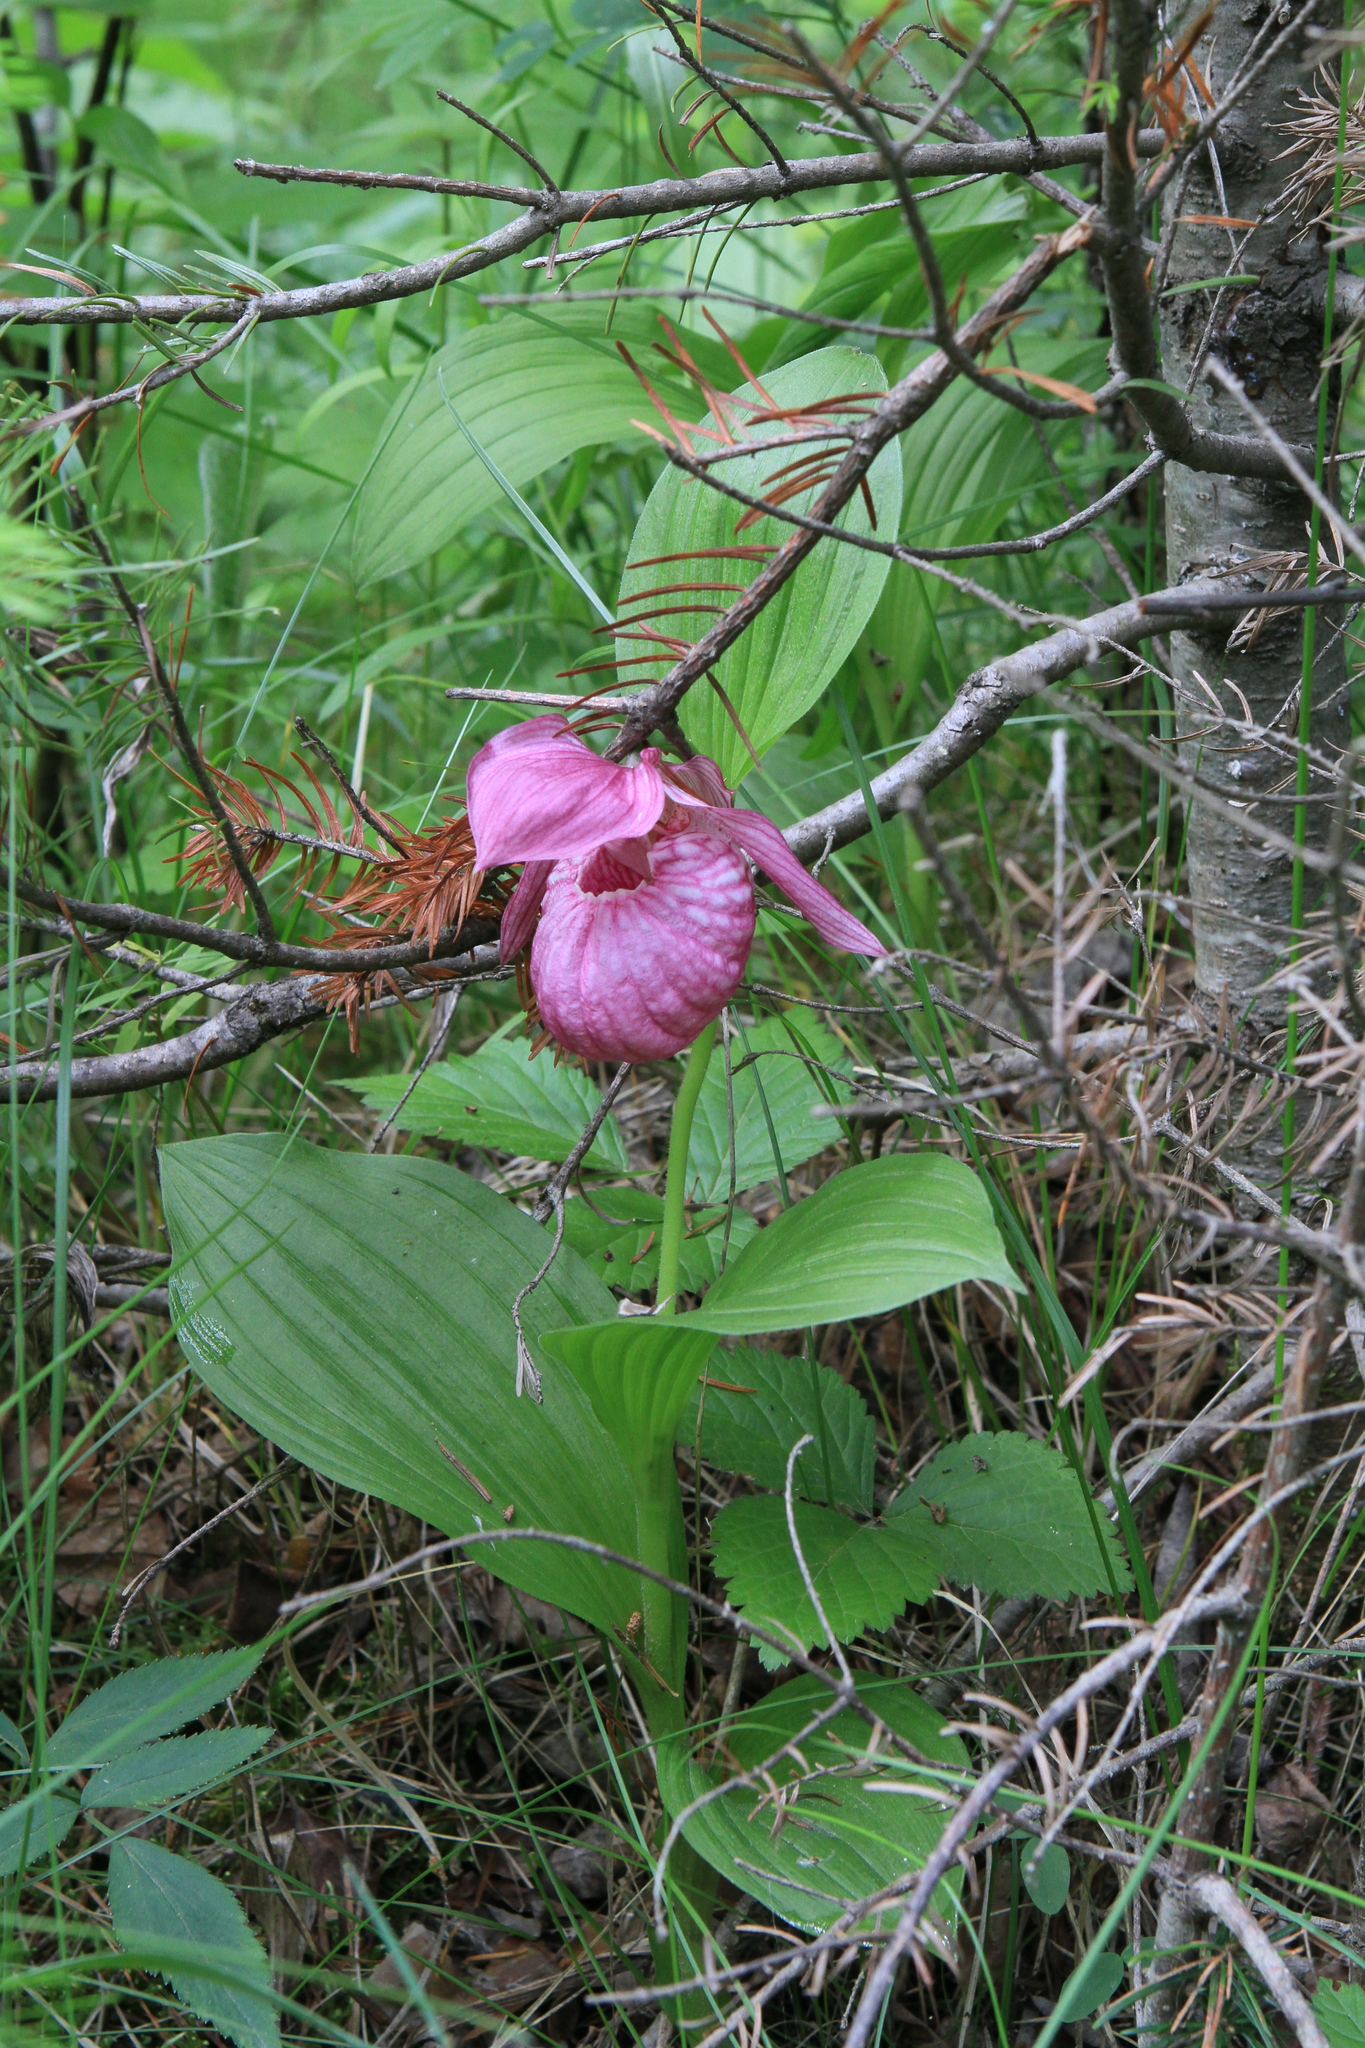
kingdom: Plantae
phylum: Tracheophyta
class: Liliopsida
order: Asparagales
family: Orchidaceae
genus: Cypripedium
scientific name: Cypripedium macranthos
